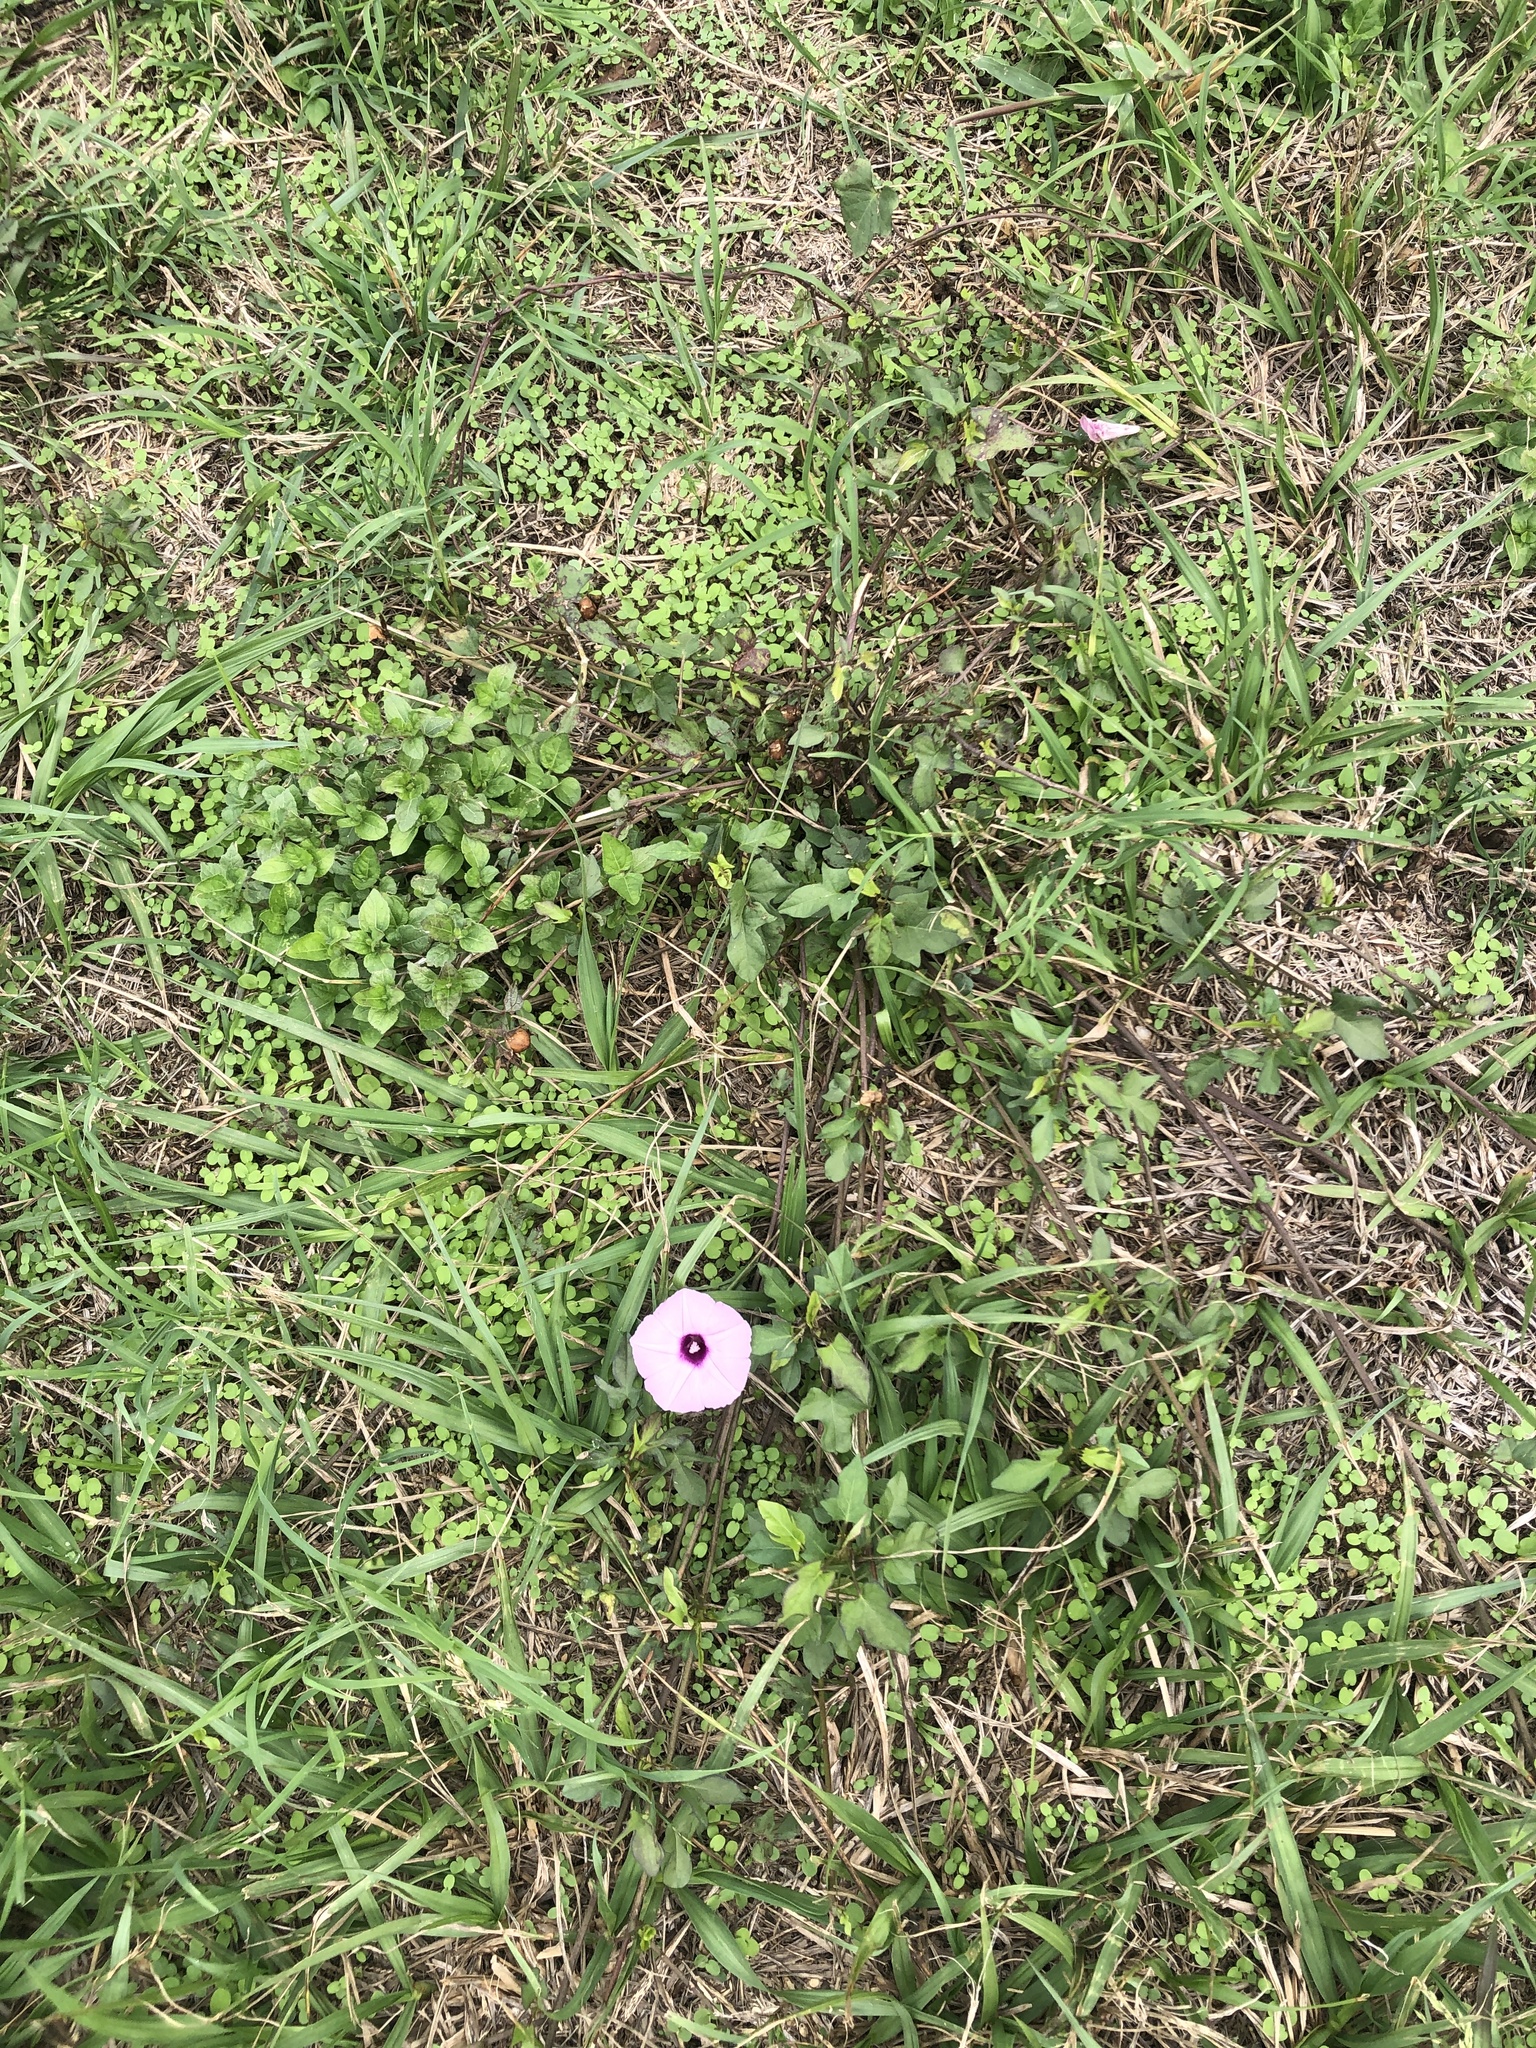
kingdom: Plantae
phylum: Tracheophyta
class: Magnoliopsida
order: Solanales
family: Convolvulaceae
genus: Ipomoea
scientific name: Ipomoea cordatotriloba
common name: Cotton morning glory
